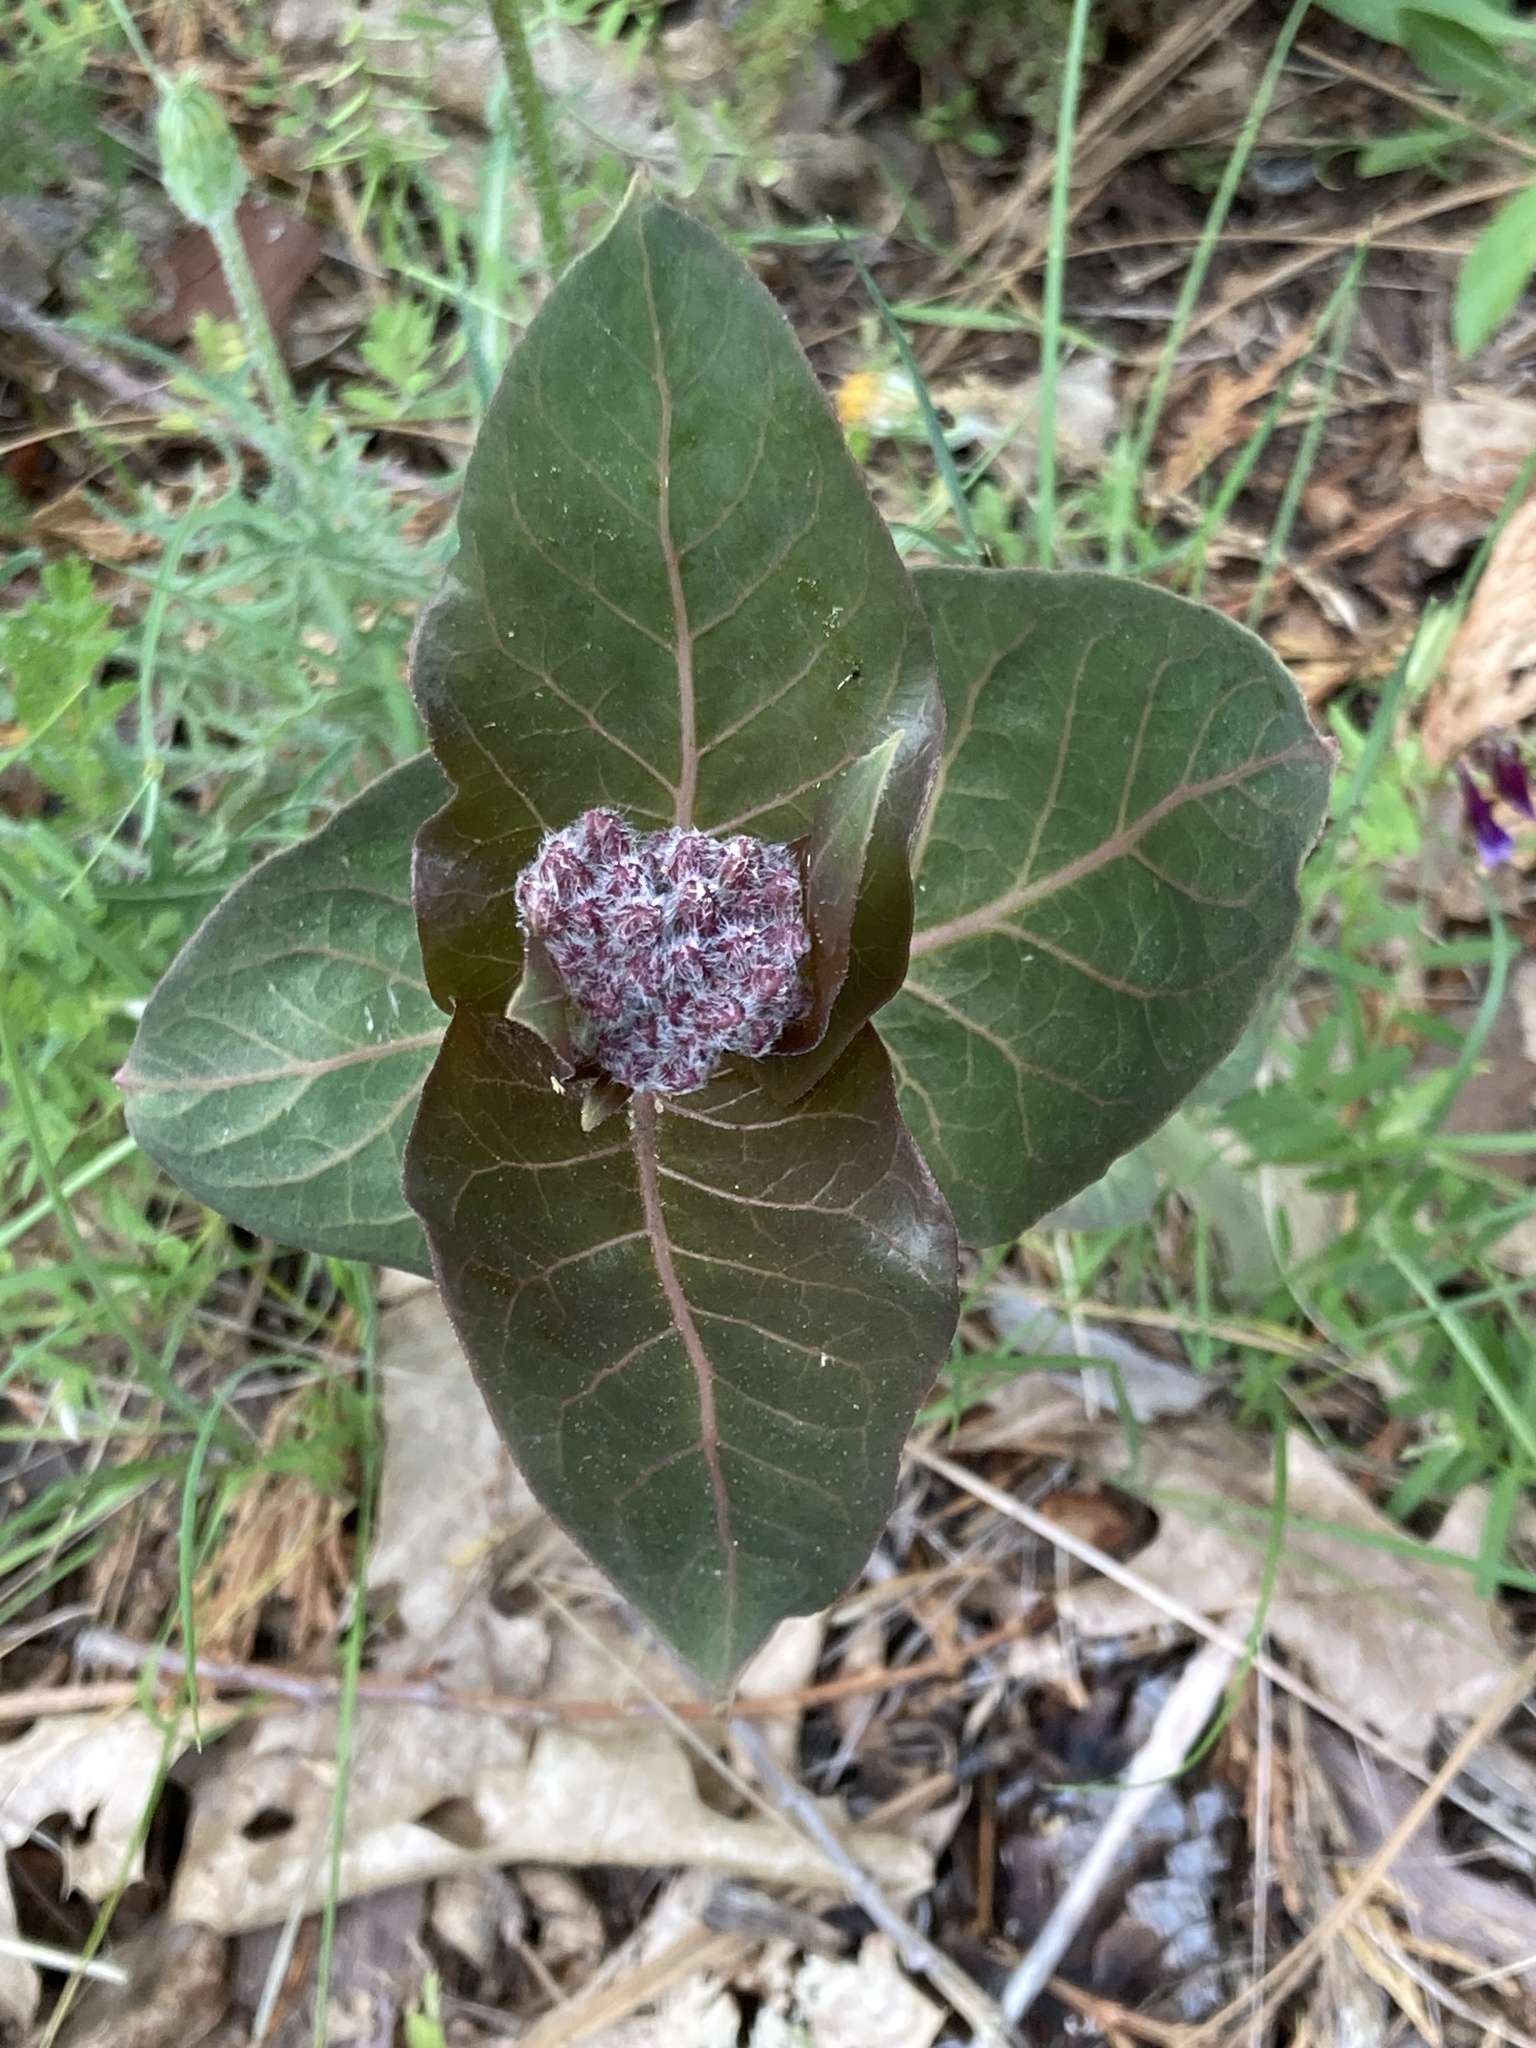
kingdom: Plantae
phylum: Tracheophyta
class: Magnoliopsida
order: Gentianales
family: Apocynaceae
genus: Asclepias
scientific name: Asclepias cordifolia
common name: Purple milkweed
